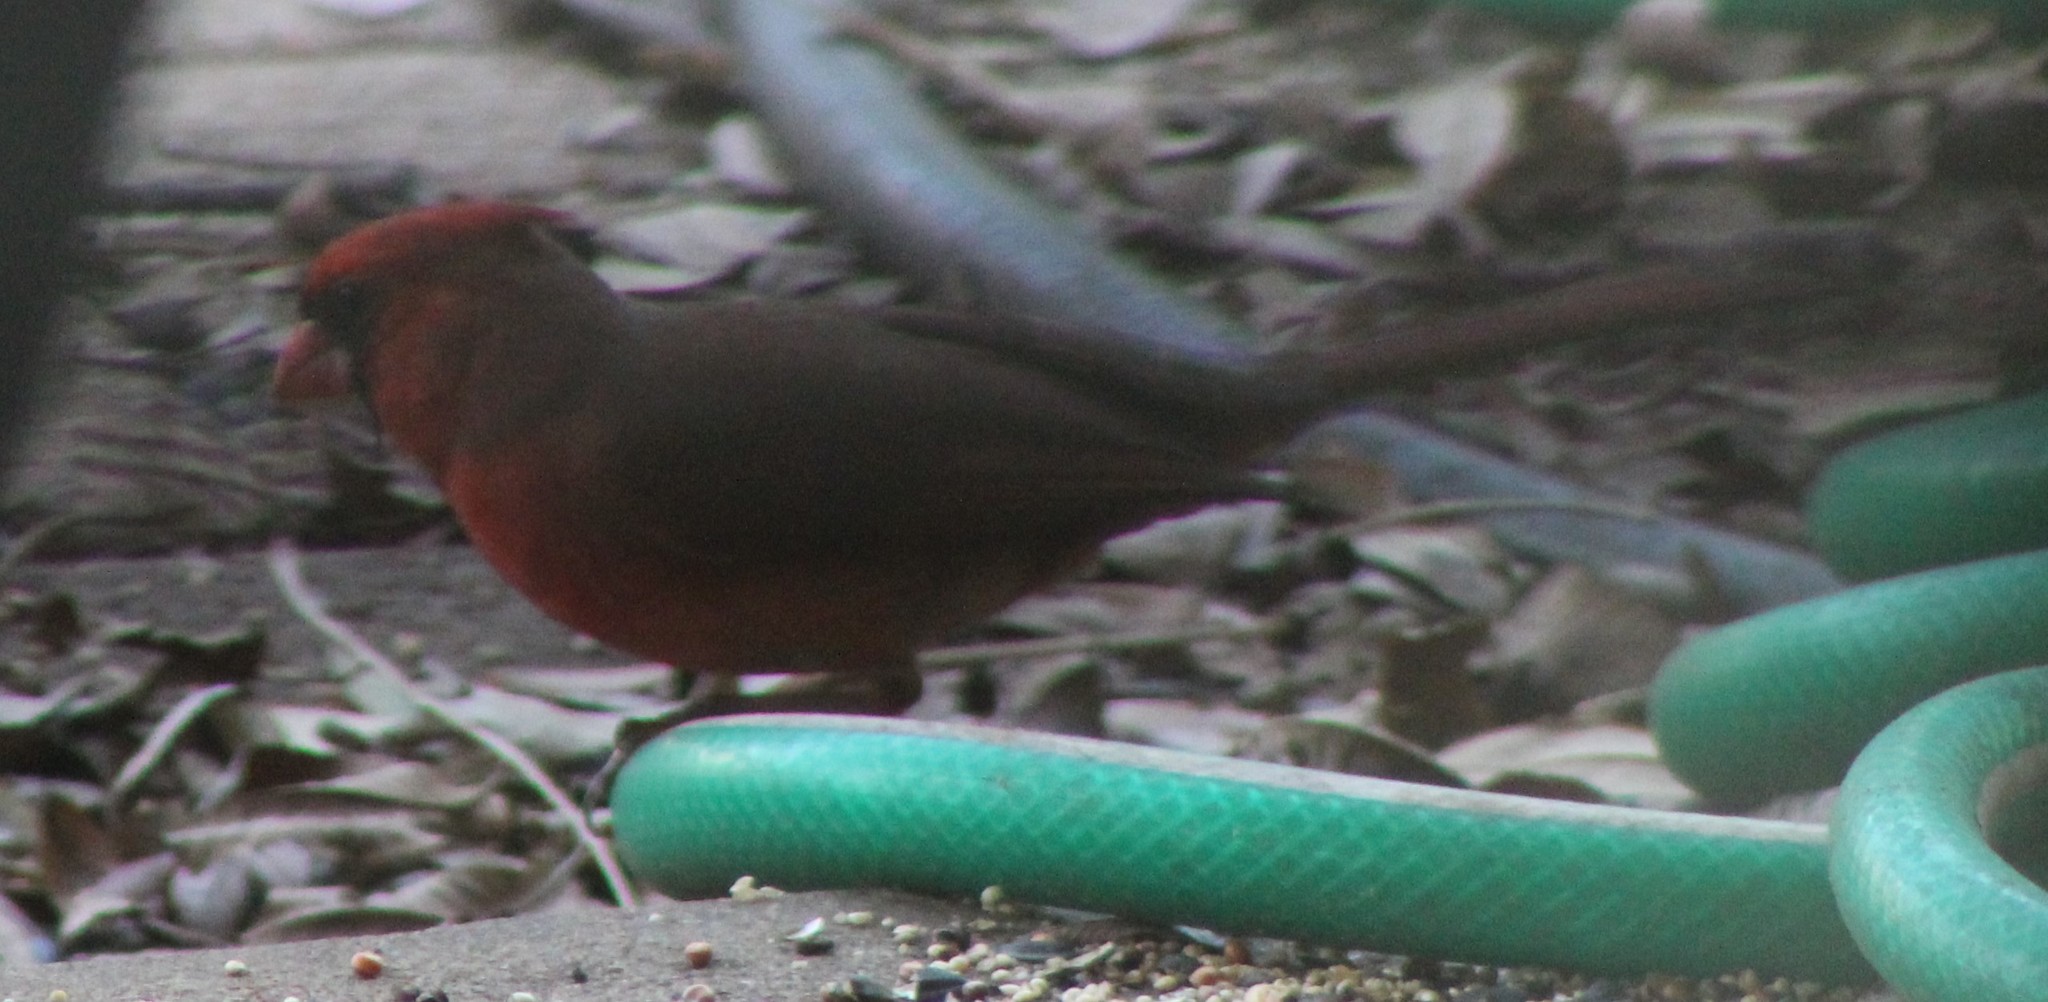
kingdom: Animalia
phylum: Chordata
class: Aves
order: Passeriformes
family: Cardinalidae
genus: Cardinalis
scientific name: Cardinalis cardinalis
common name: Northern cardinal
